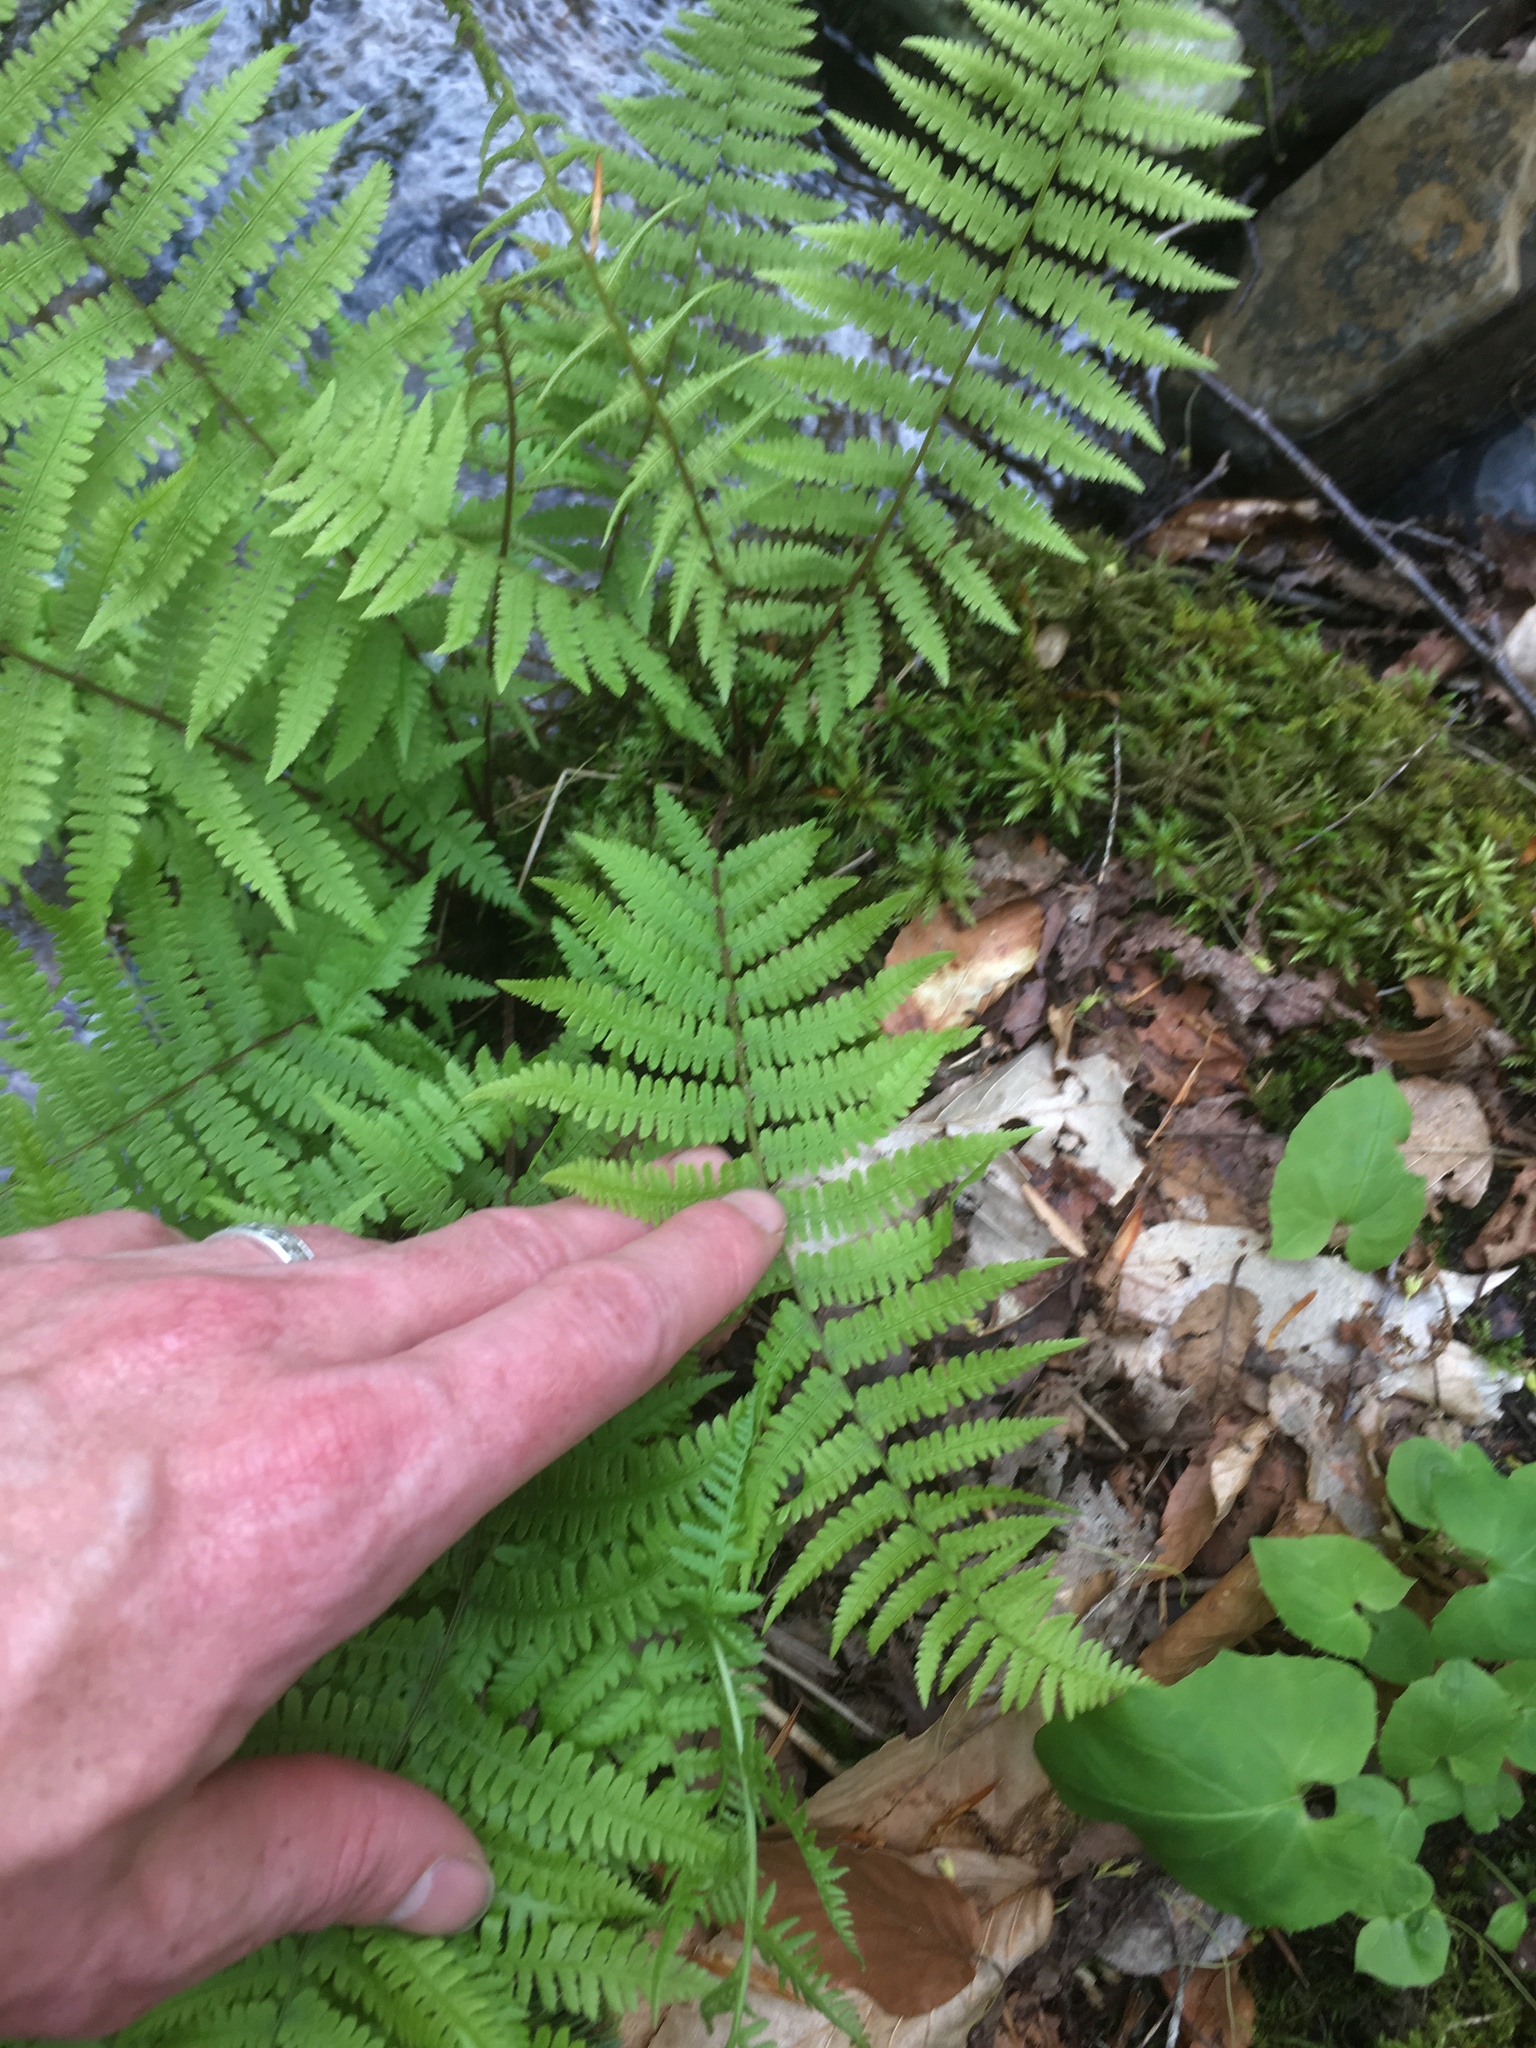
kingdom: Plantae
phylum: Tracheophyta
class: Polypodiopsida
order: Polypodiales
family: Athyriaceae
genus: Athyrium
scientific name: Athyrium angustum
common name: Northern lady fern
